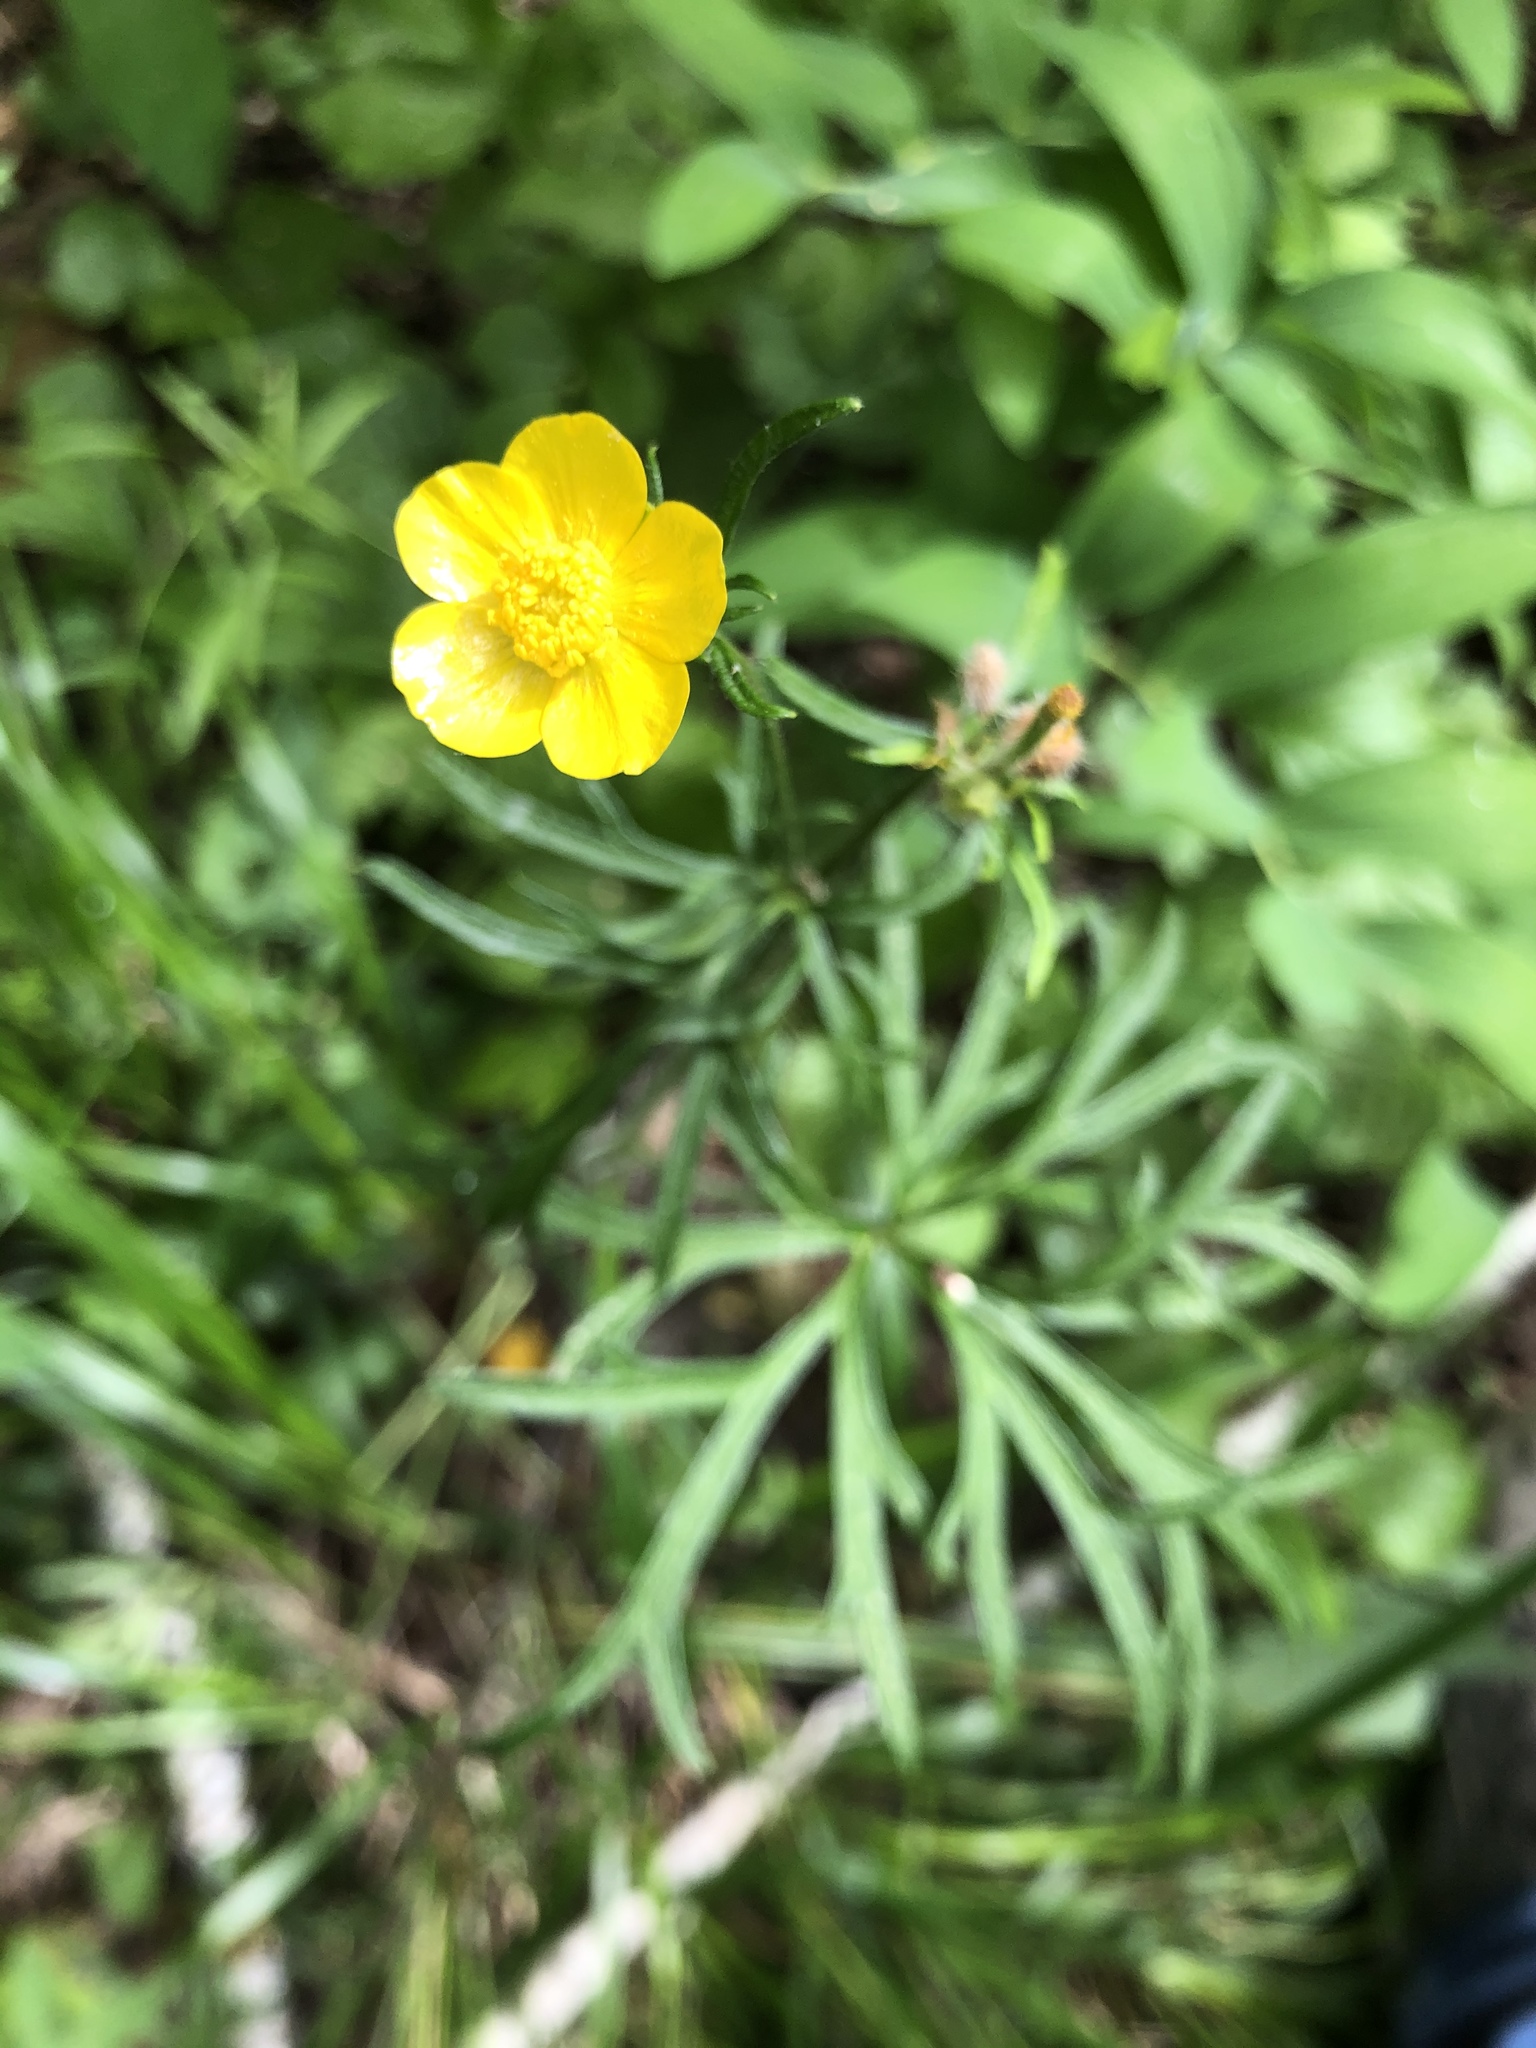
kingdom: Plantae
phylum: Tracheophyta
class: Magnoliopsida
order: Ranunculales
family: Ranunculaceae
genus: Ranunculus
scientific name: Ranunculus polyanthemos
